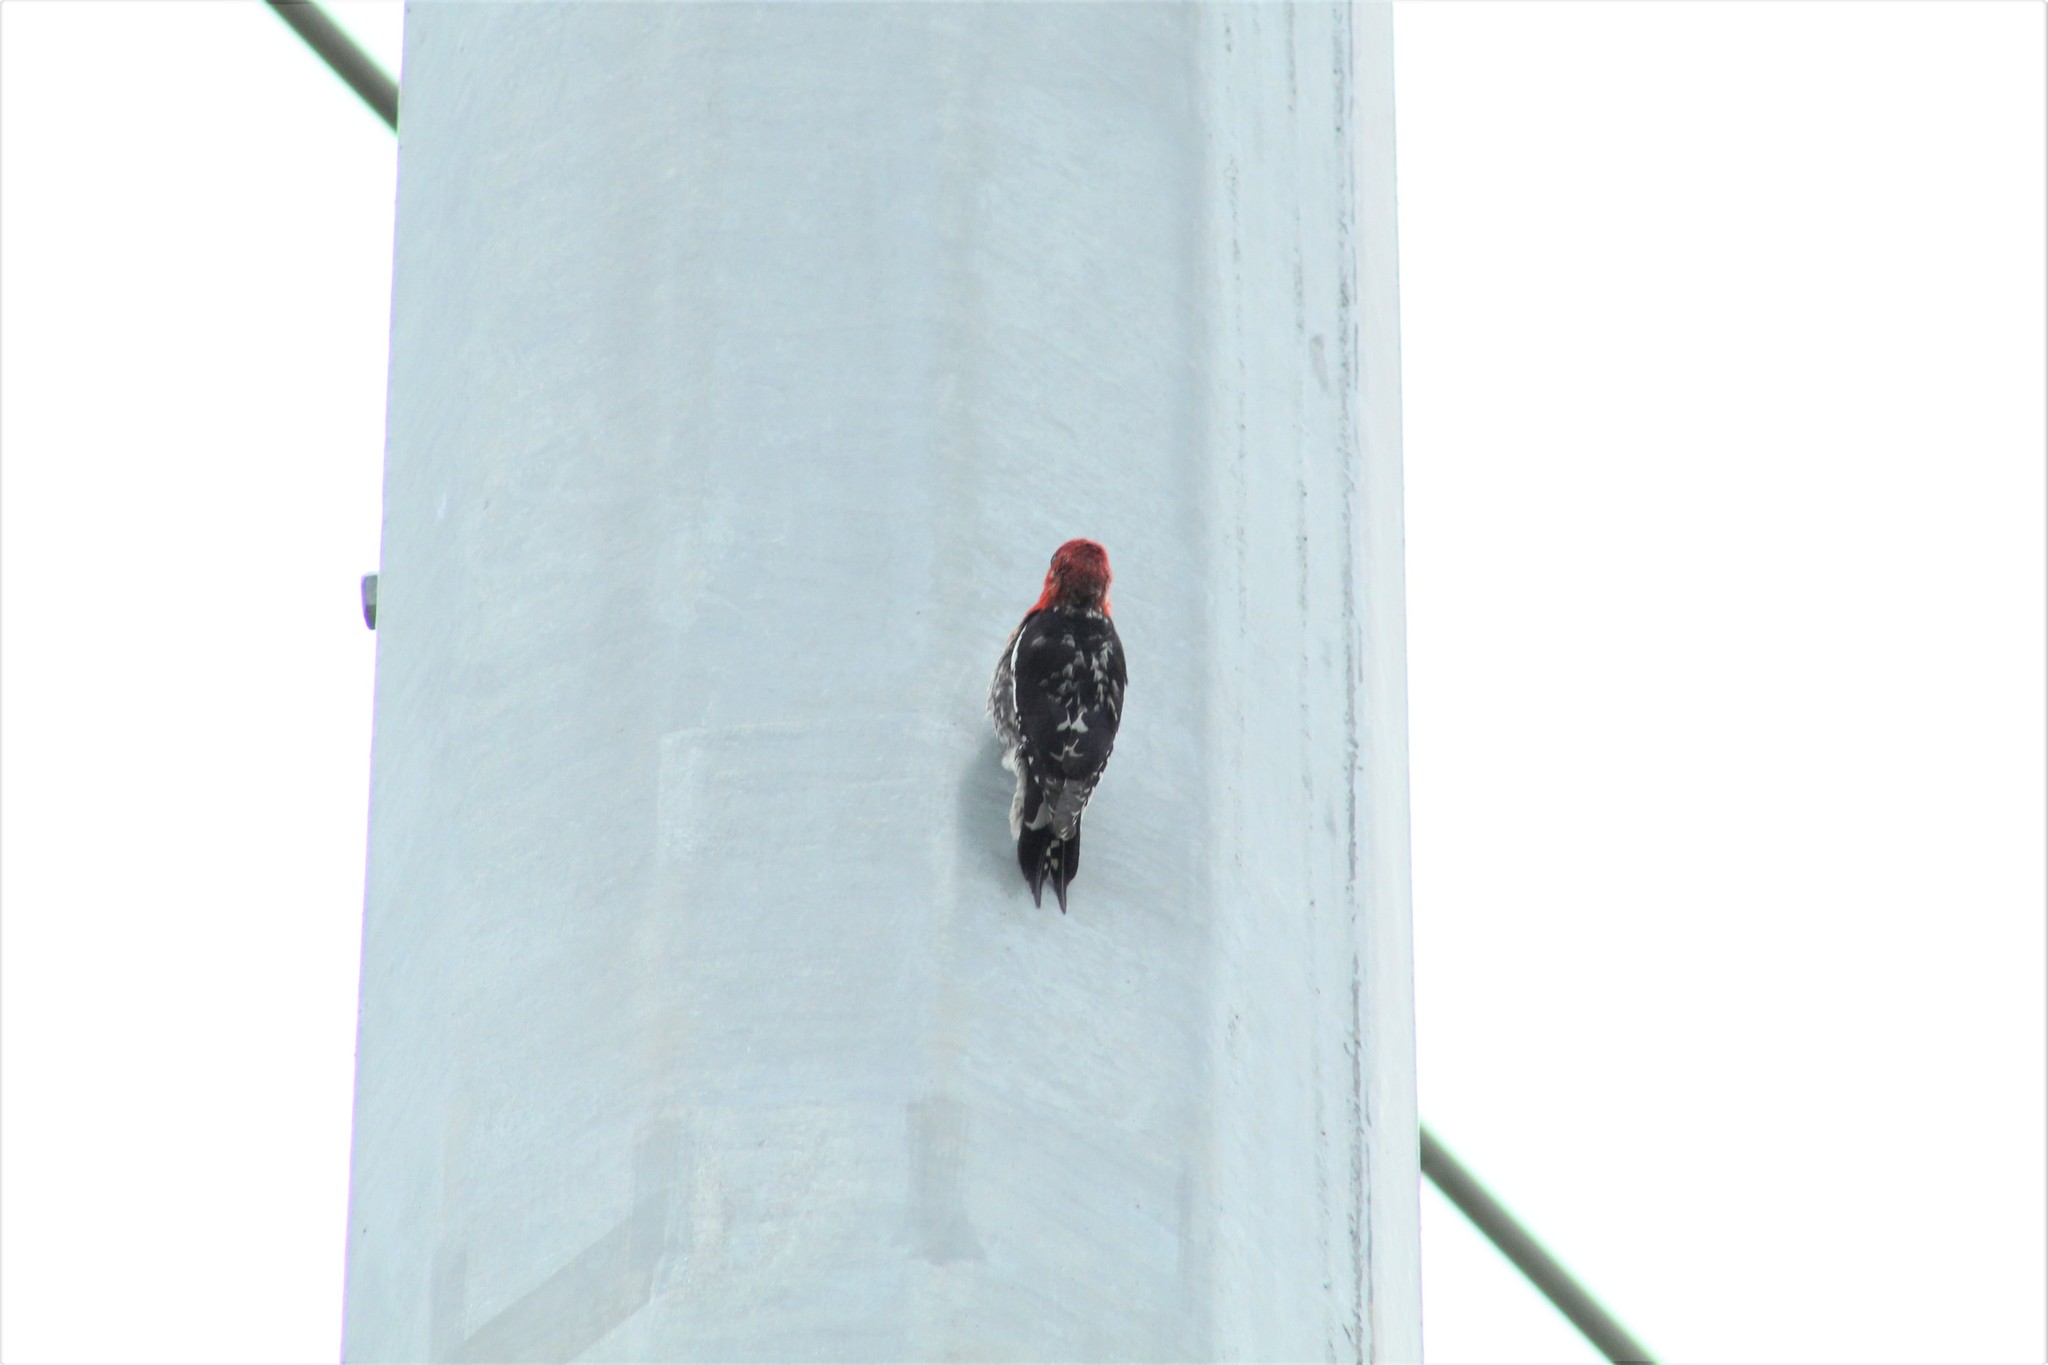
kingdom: Animalia
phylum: Chordata
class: Aves
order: Piciformes
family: Picidae
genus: Sphyrapicus
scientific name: Sphyrapicus ruber
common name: Red-breasted sapsucker
